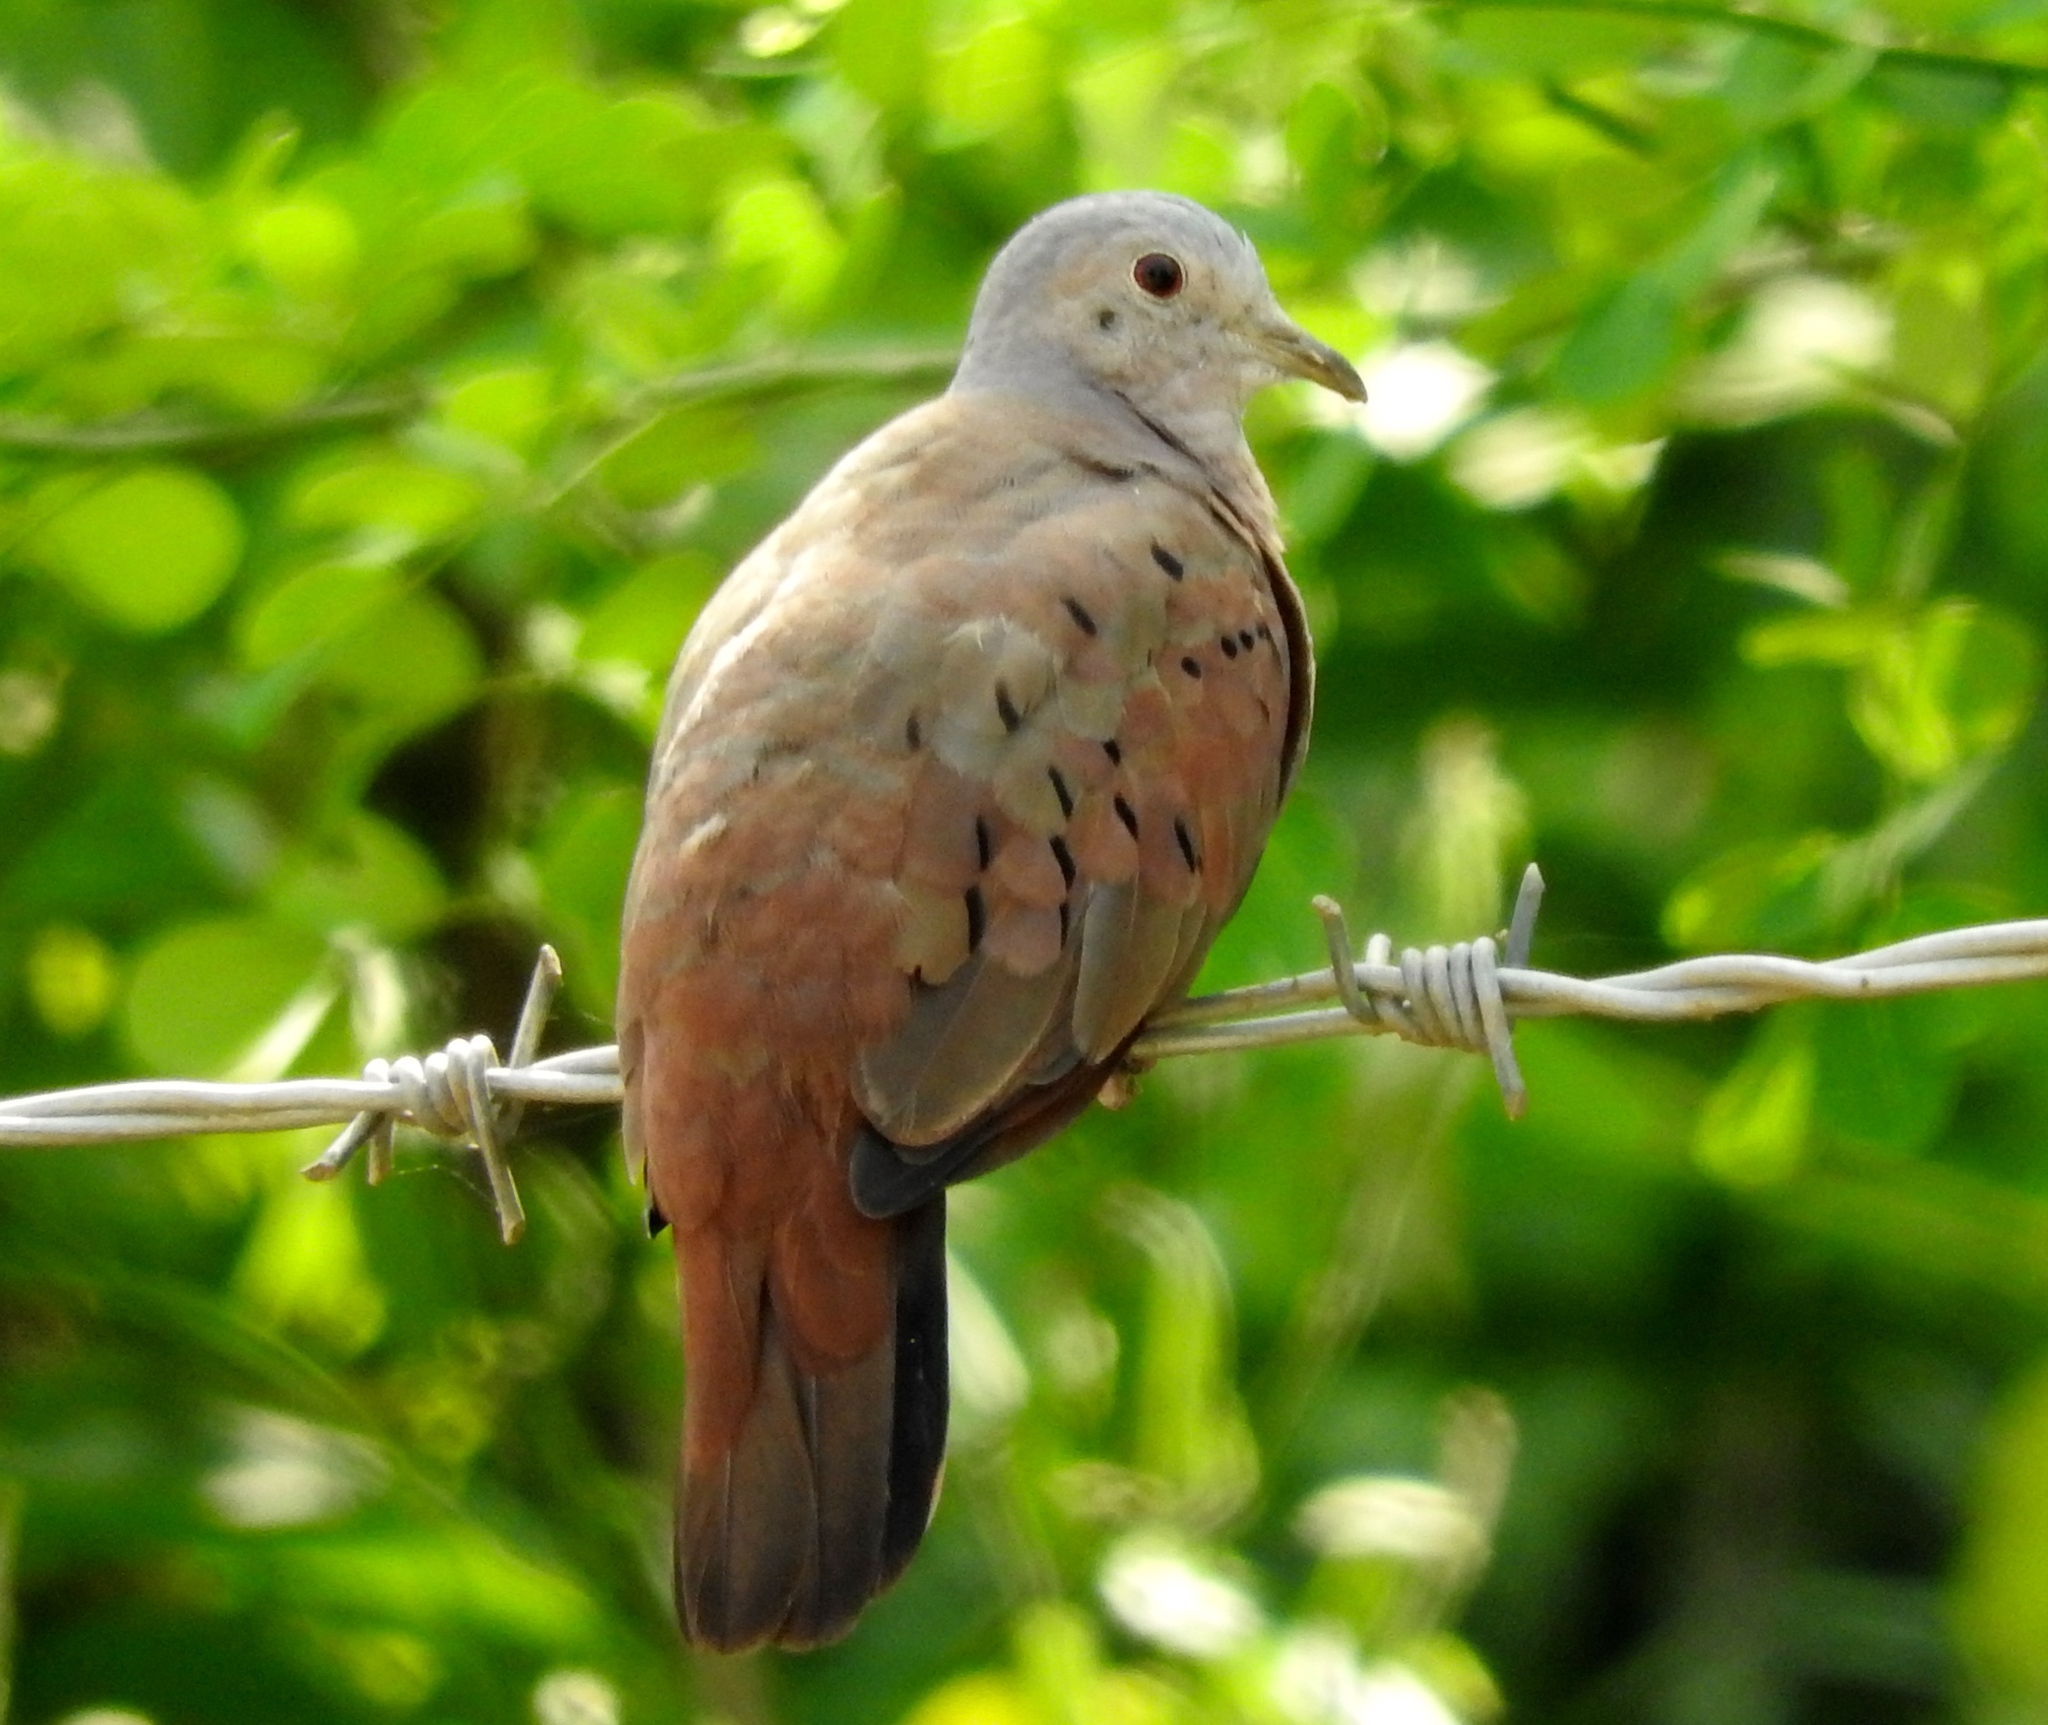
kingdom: Animalia
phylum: Chordata
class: Aves
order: Columbiformes
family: Columbidae
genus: Columbina
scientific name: Columbina talpacoti
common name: Ruddy ground dove
